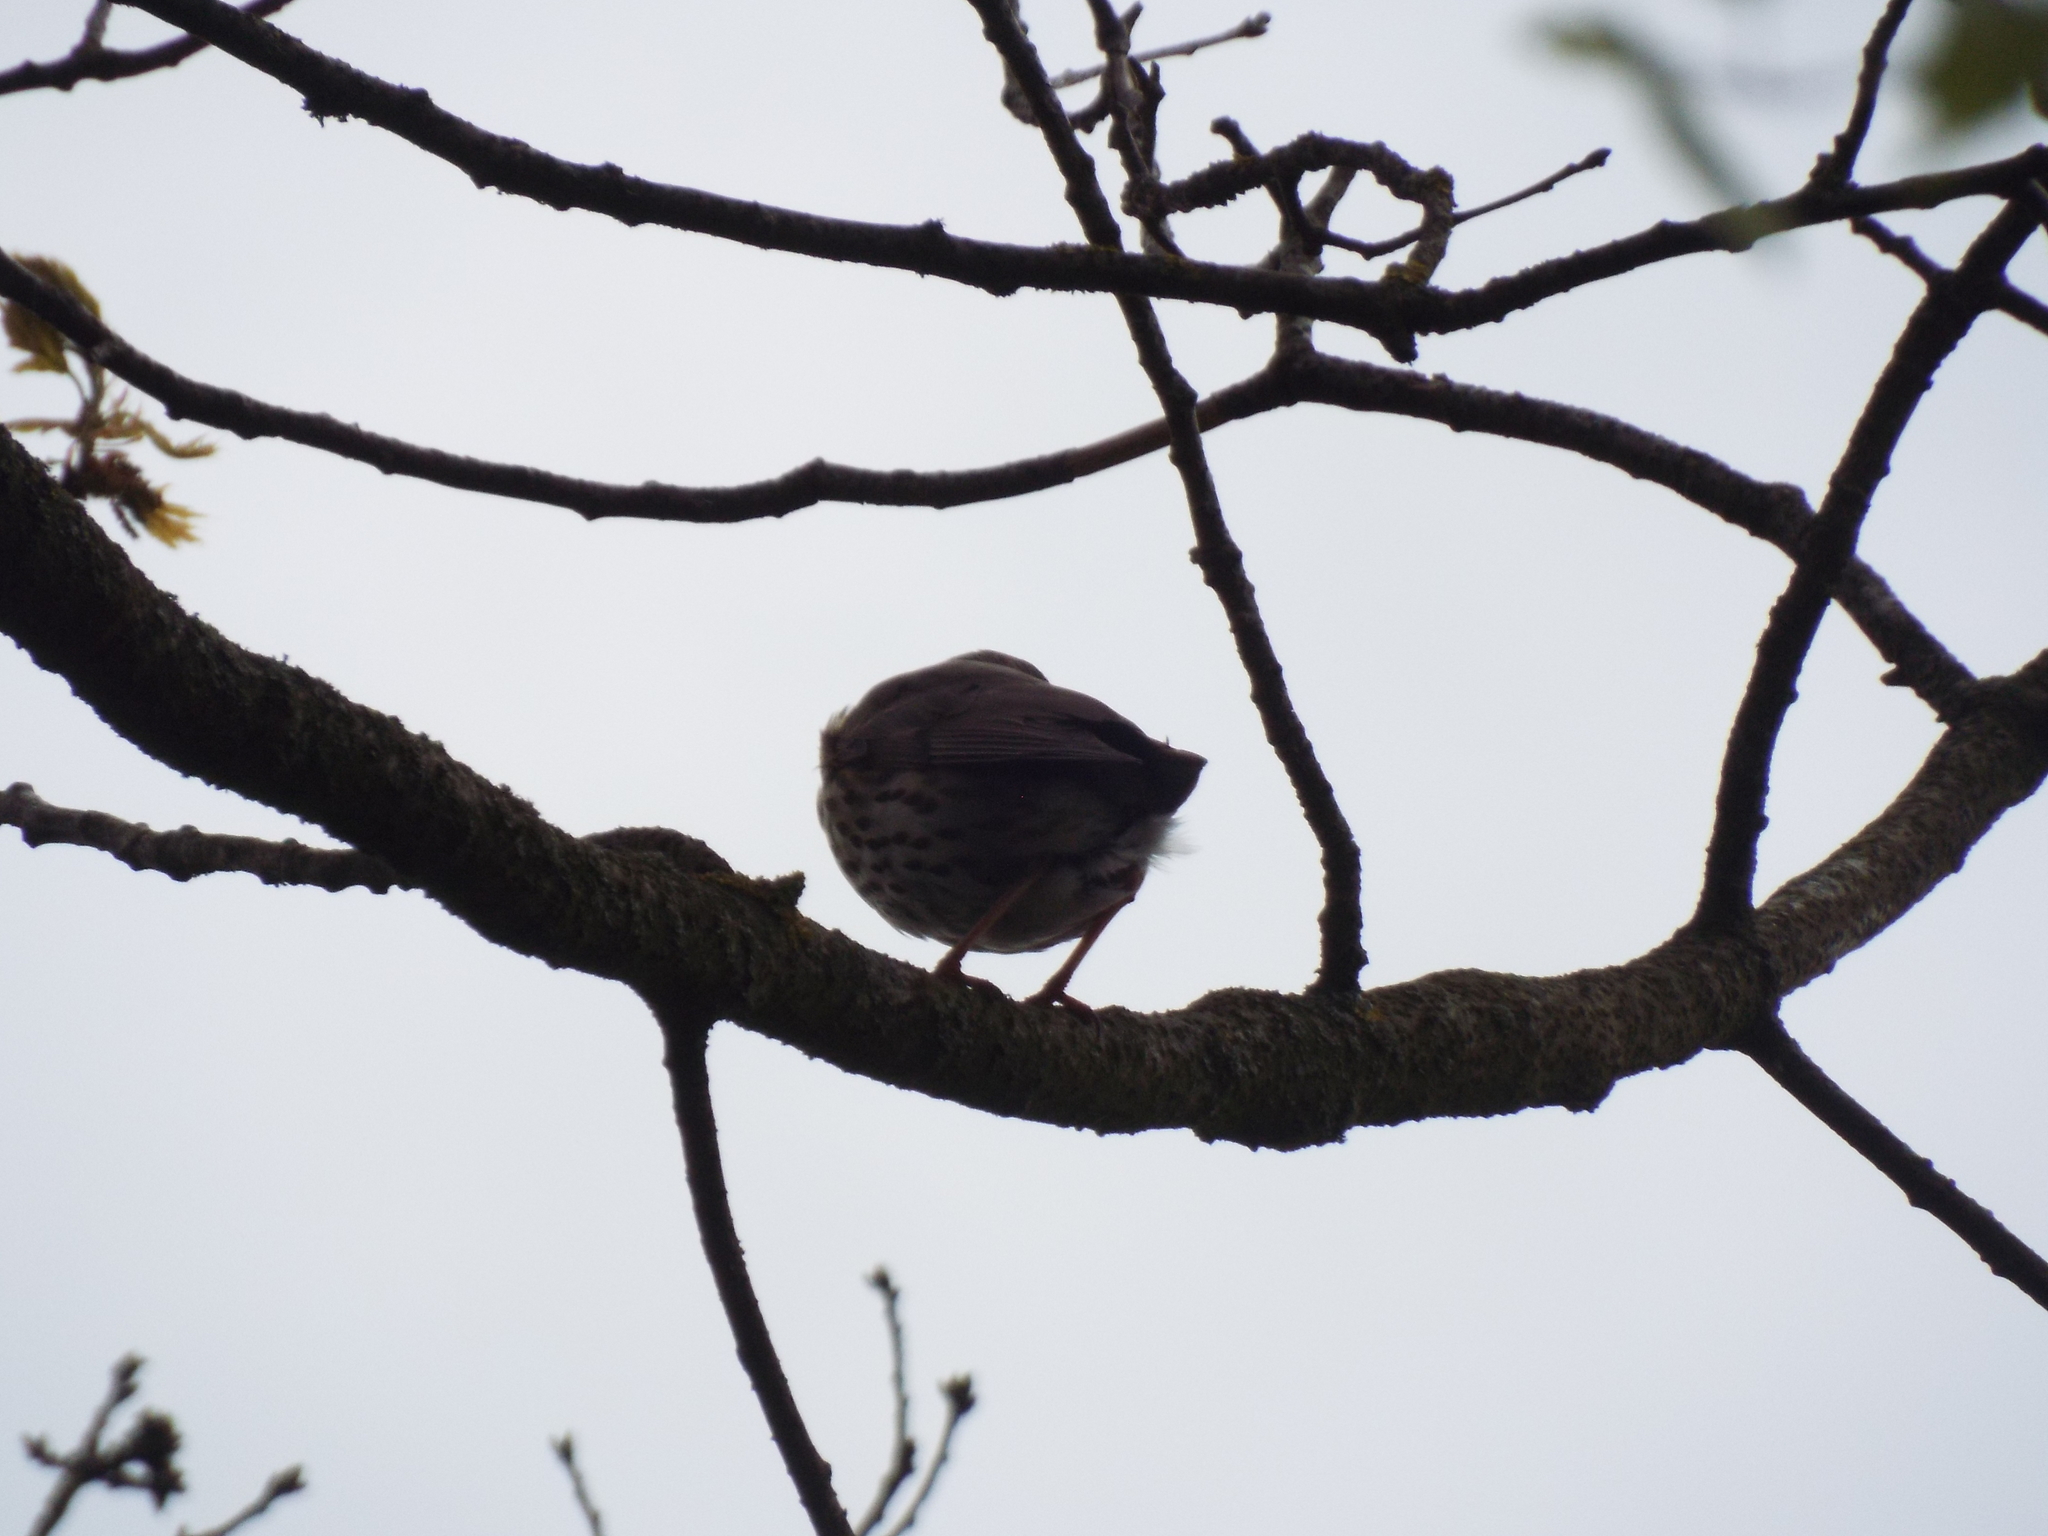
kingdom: Animalia
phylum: Chordata
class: Aves
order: Passeriformes
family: Turdidae
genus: Turdus
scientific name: Turdus philomelos
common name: Song thrush
